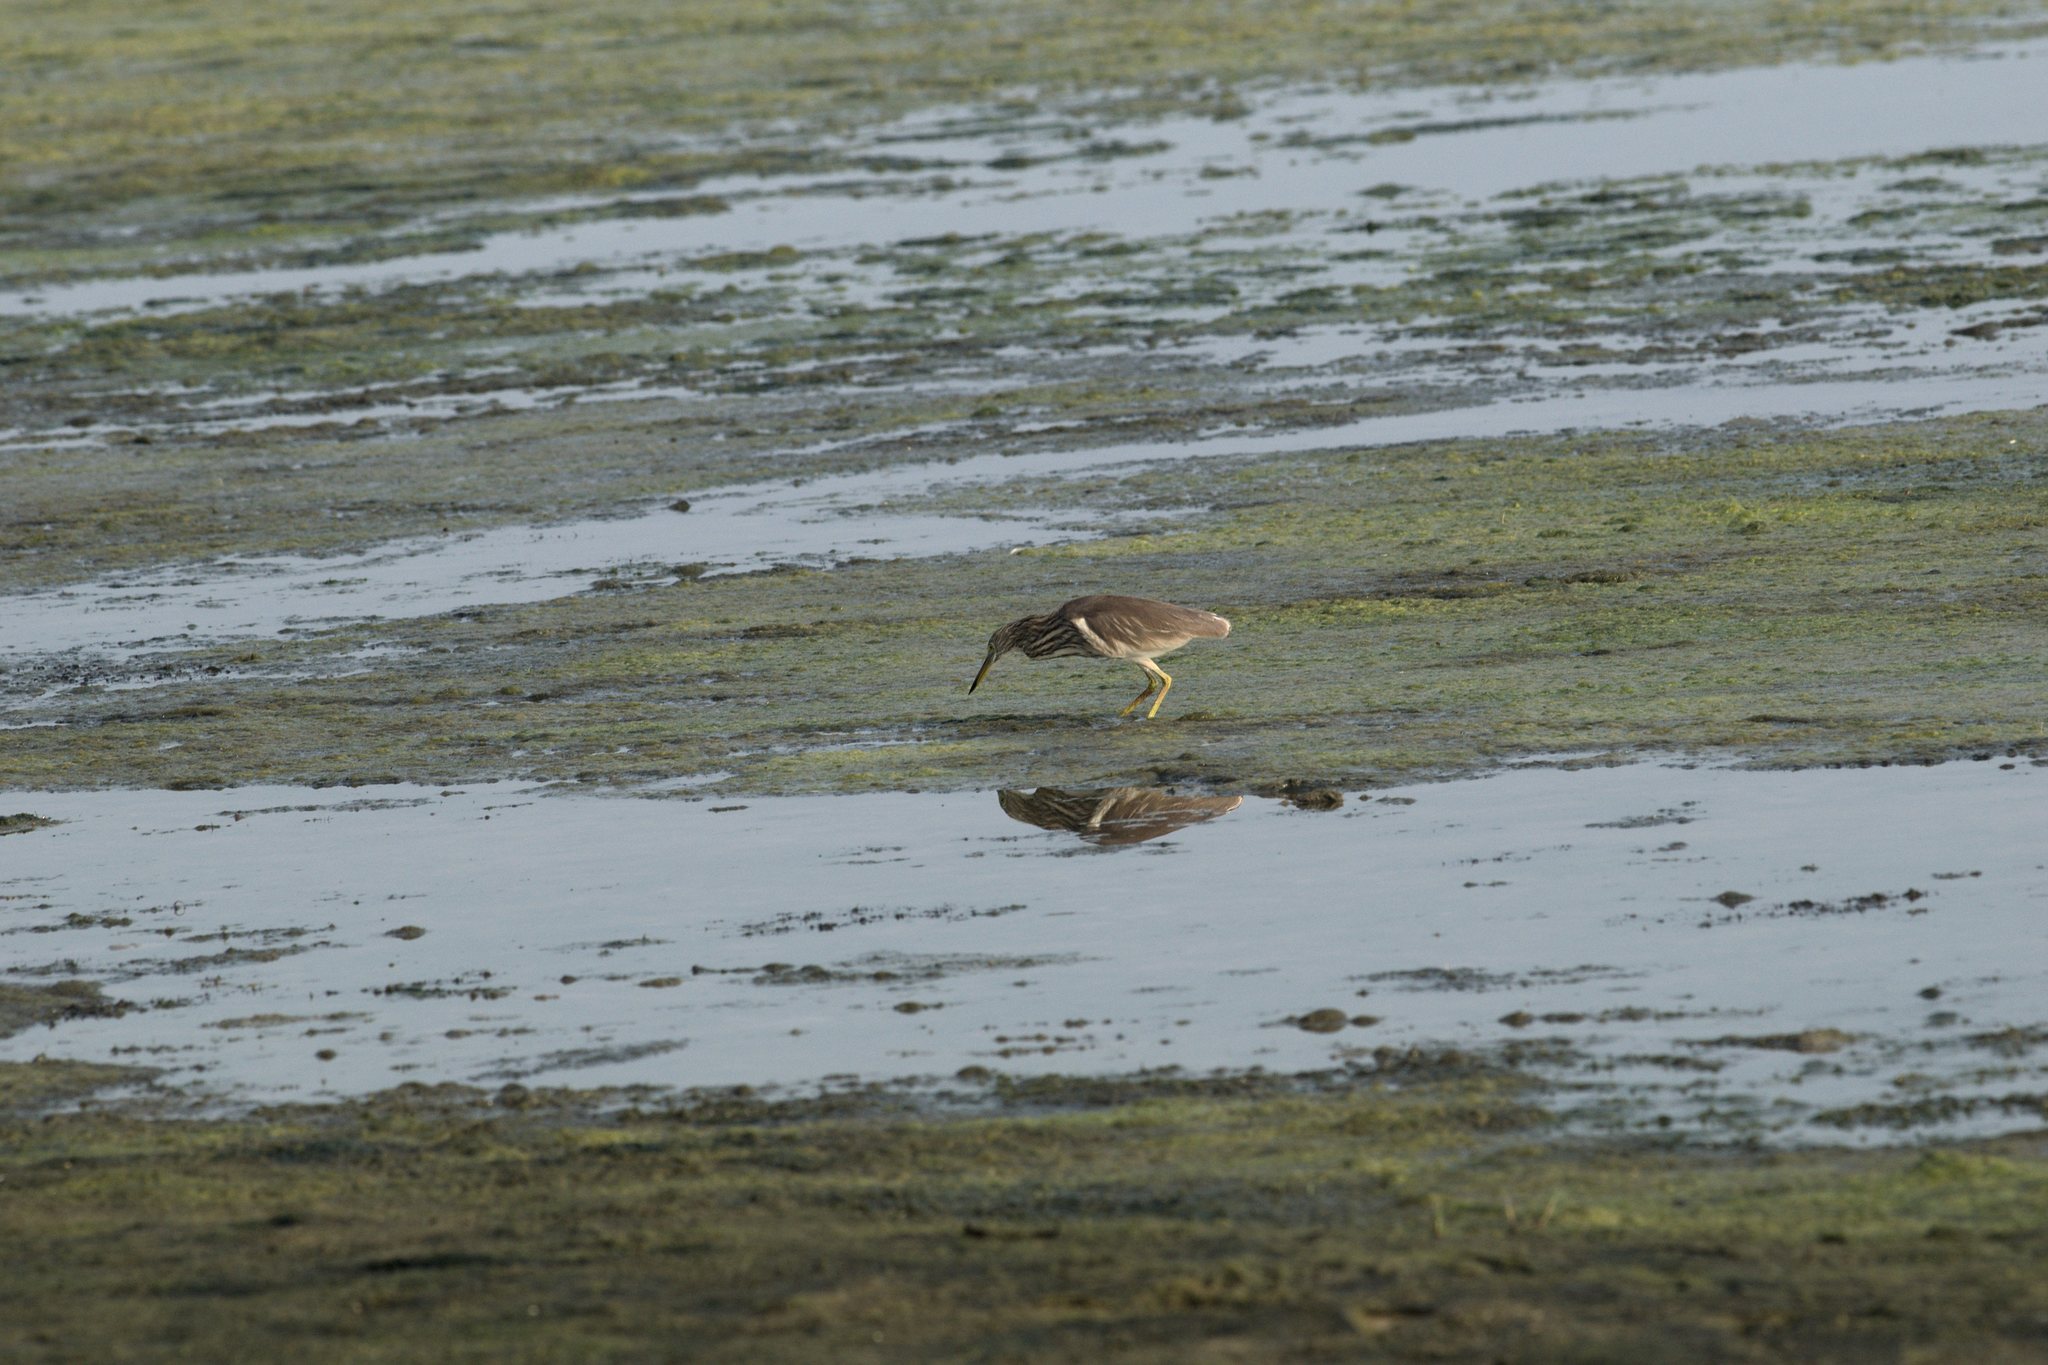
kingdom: Animalia
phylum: Chordata
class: Aves
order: Pelecaniformes
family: Ardeidae
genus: Ardeola
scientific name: Ardeola grayii
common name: Indian pond heron
